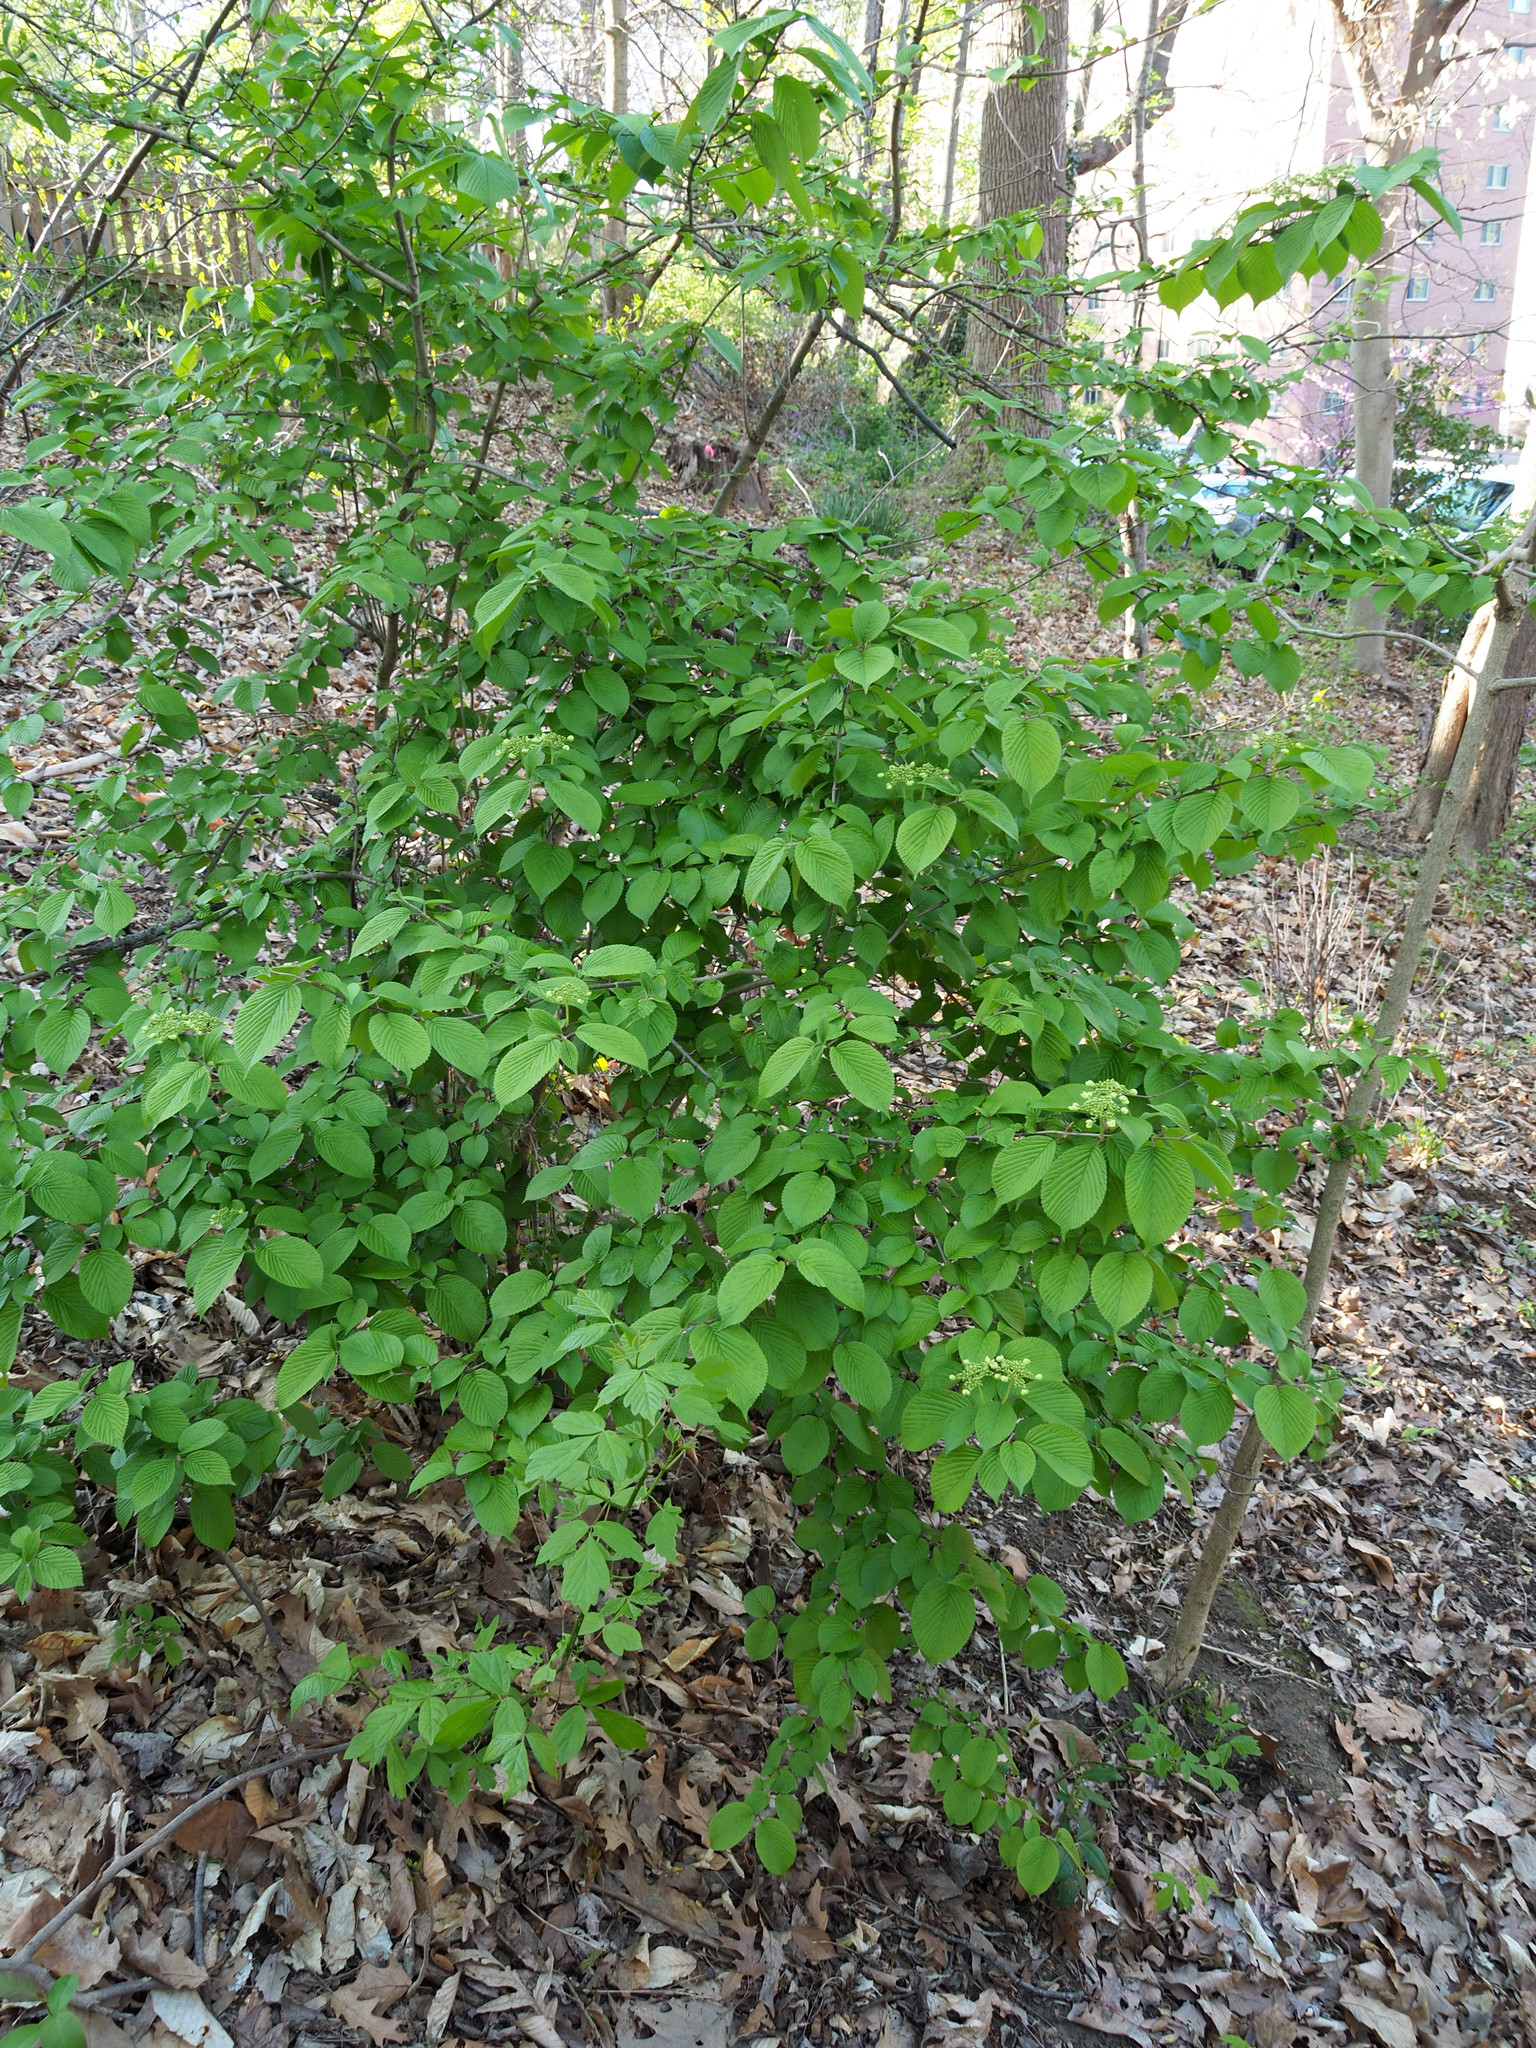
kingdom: Plantae
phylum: Tracheophyta
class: Magnoliopsida
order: Dipsacales
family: Viburnaceae
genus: Viburnum
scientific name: Viburnum plicatum
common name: Japanese snowball
